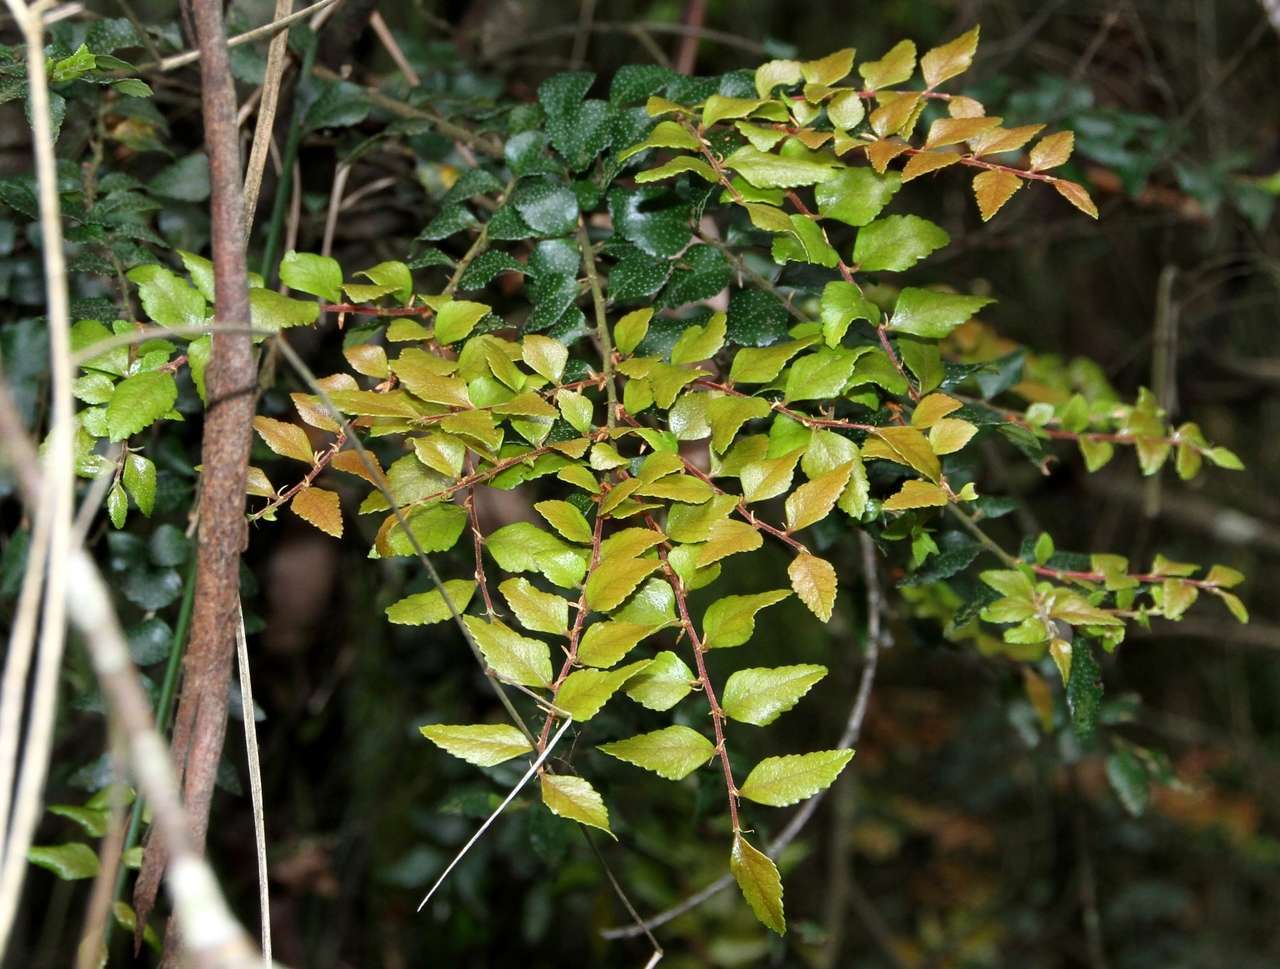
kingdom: Plantae
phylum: Tracheophyta
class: Magnoliopsida
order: Fagales
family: Nothofagaceae
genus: Nothofagus
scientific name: Nothofagus cunninghamii
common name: Myrtle beech
